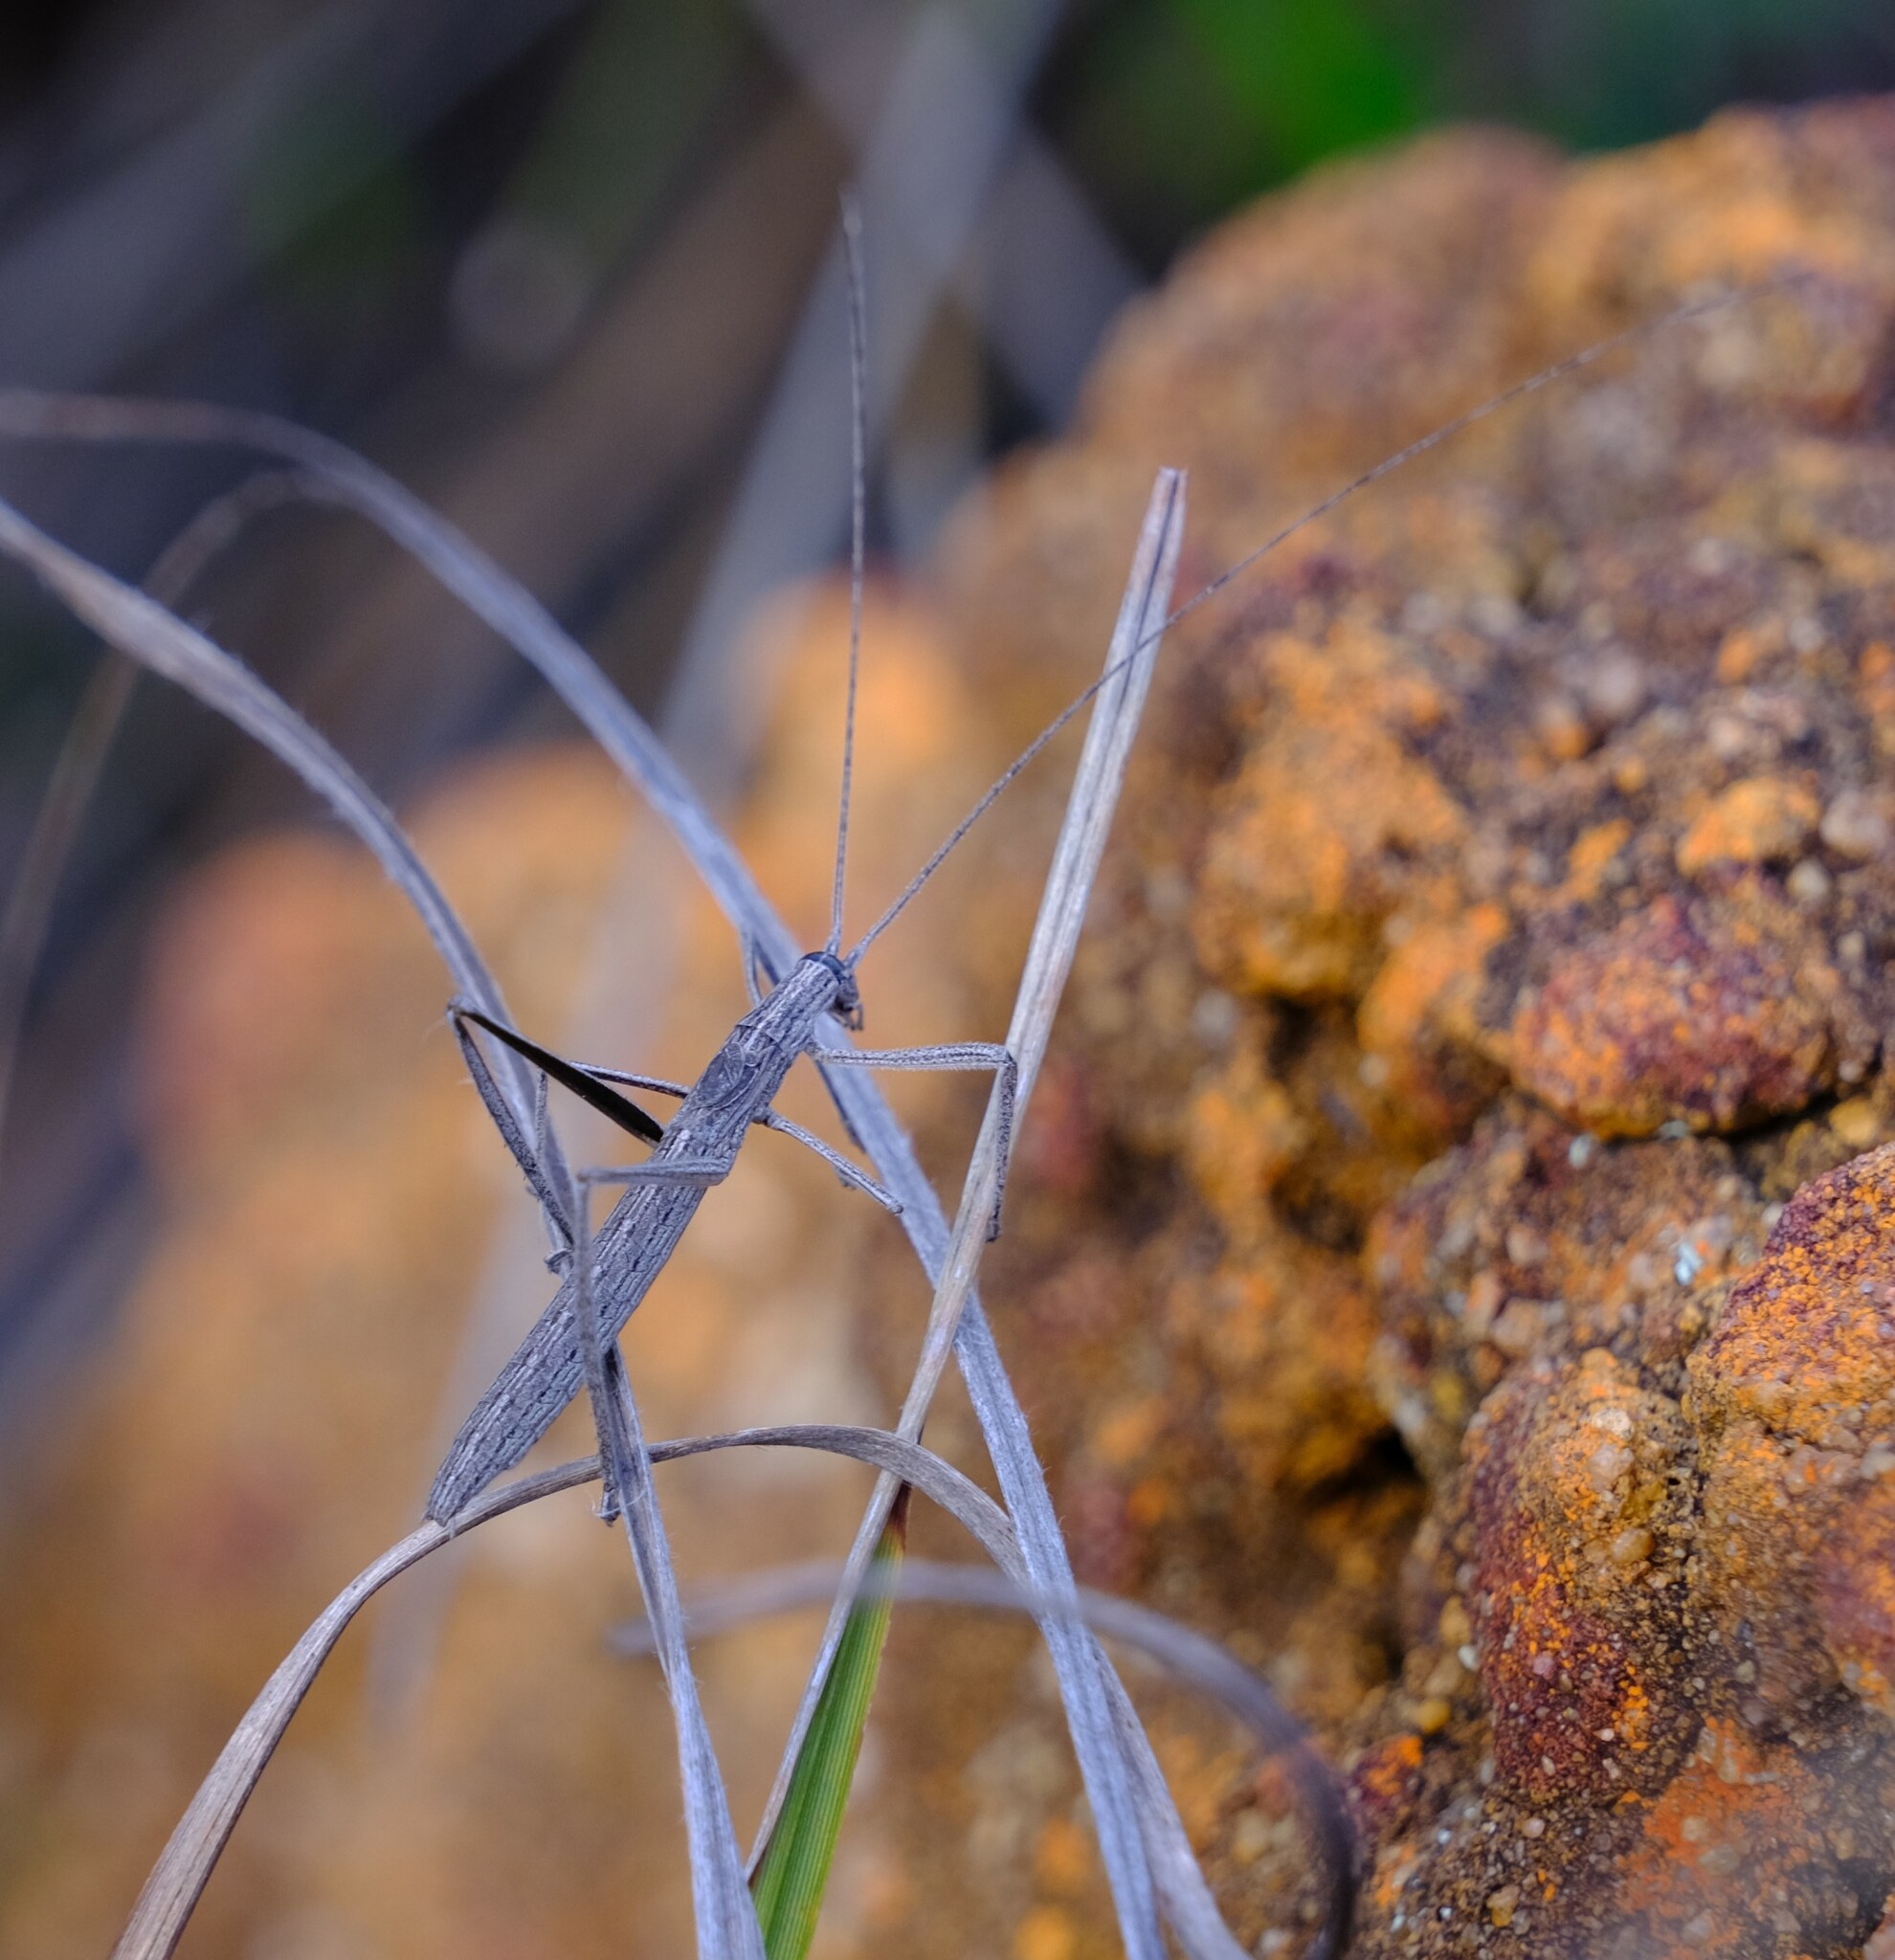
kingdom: Animalia
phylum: Arthropoda
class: Insecta
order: Orthoptera
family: Tettigoniidae
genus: Kawanaphila
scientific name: Kawanaphila nartee
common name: Nartee
